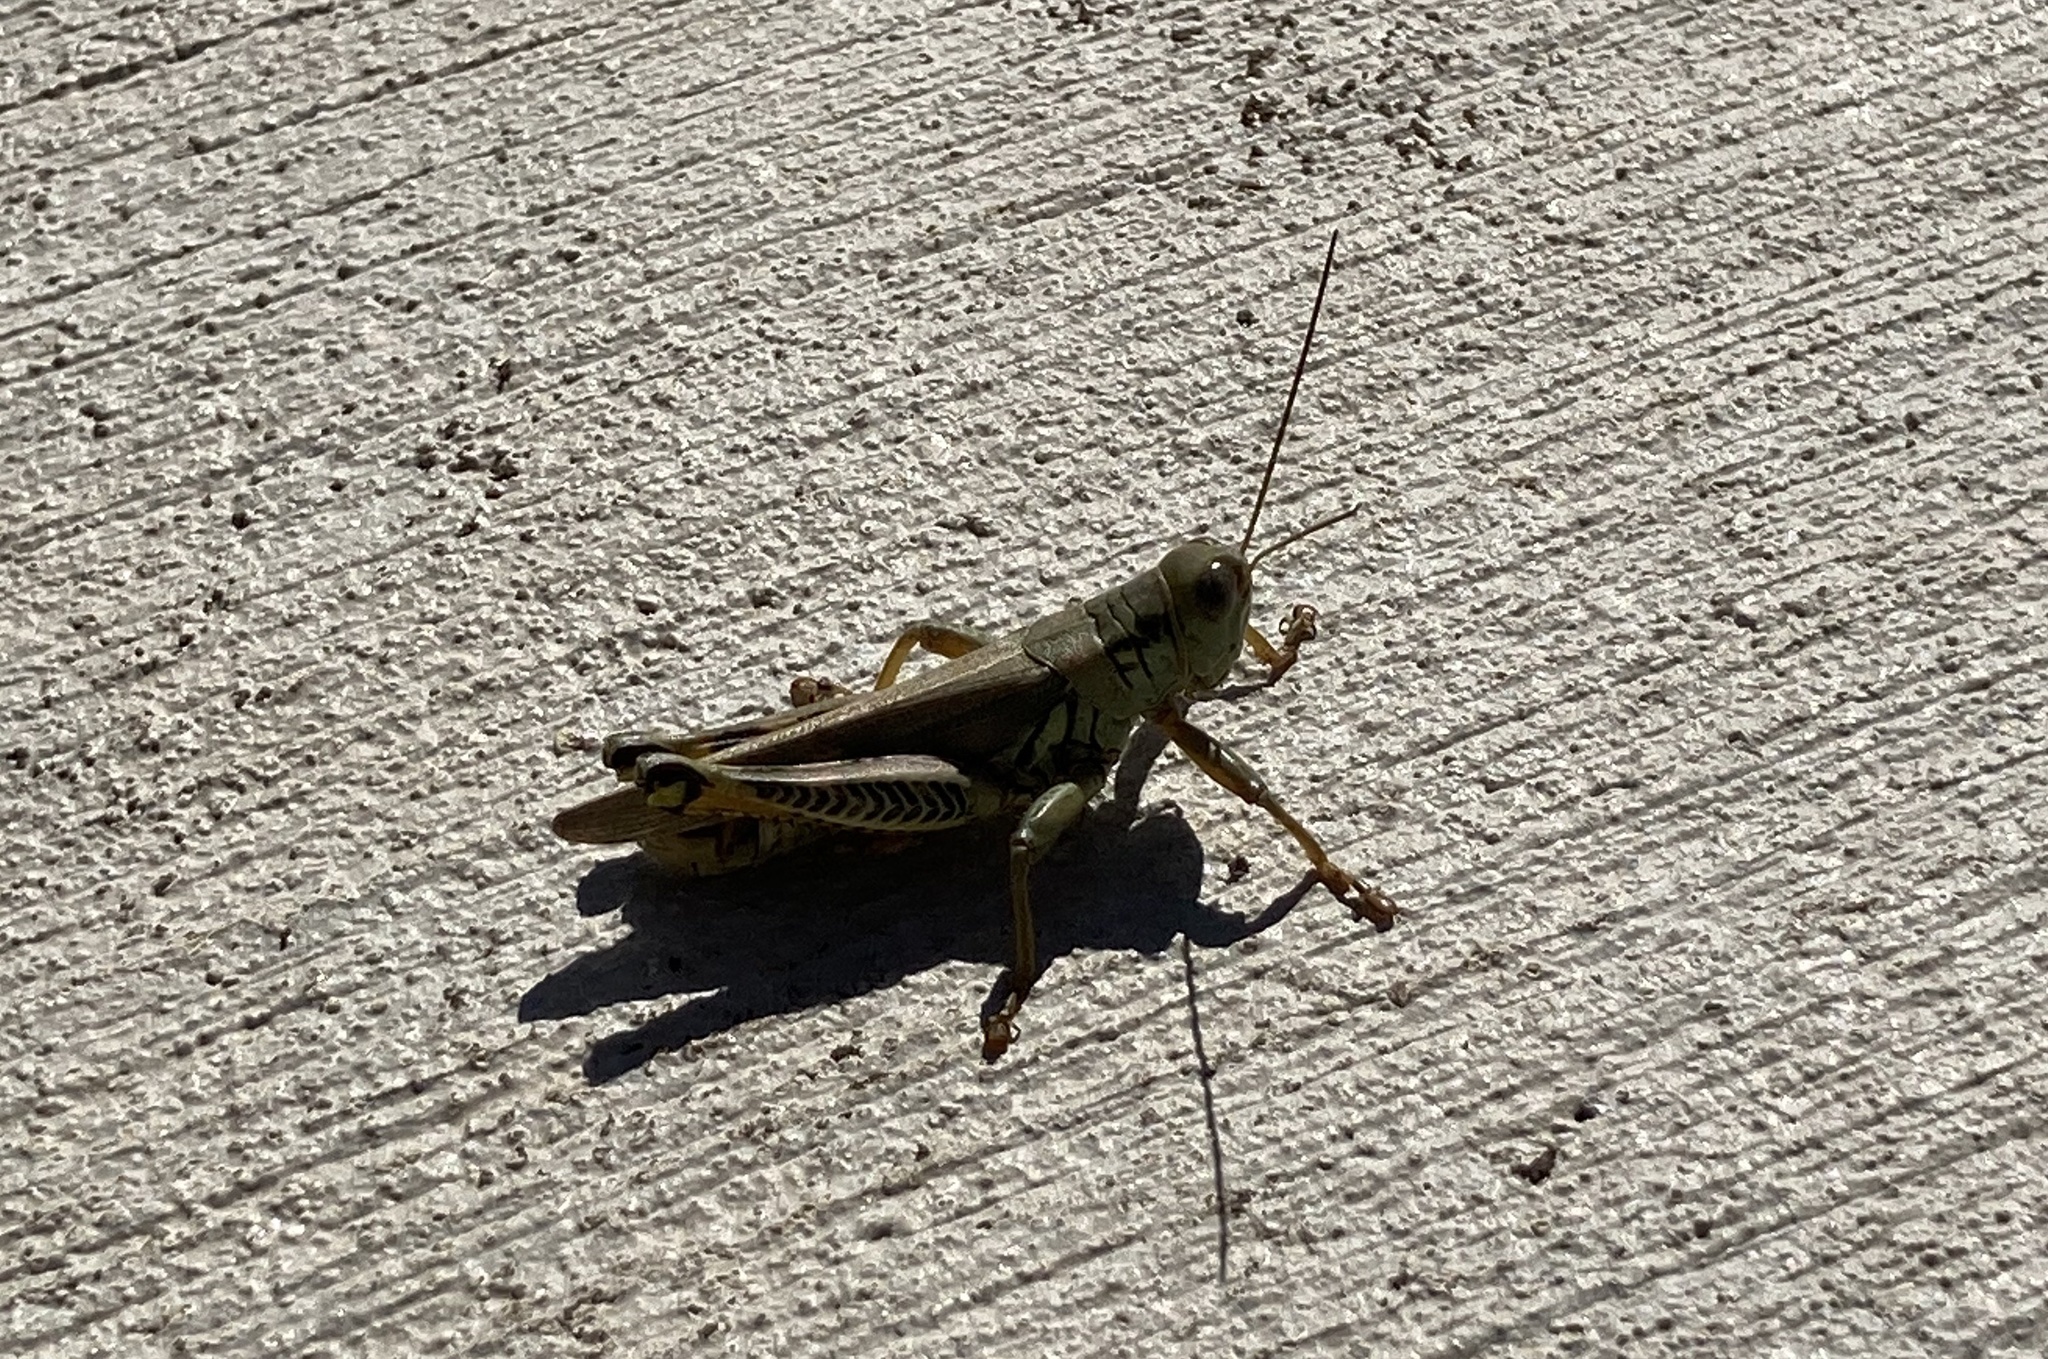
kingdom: Animalia
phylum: Arthropoda
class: Insecta
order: Orthoptera
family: Acrididae
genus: Melanoplus
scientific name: Melanoplus differentialis
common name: Differential grasshopper
